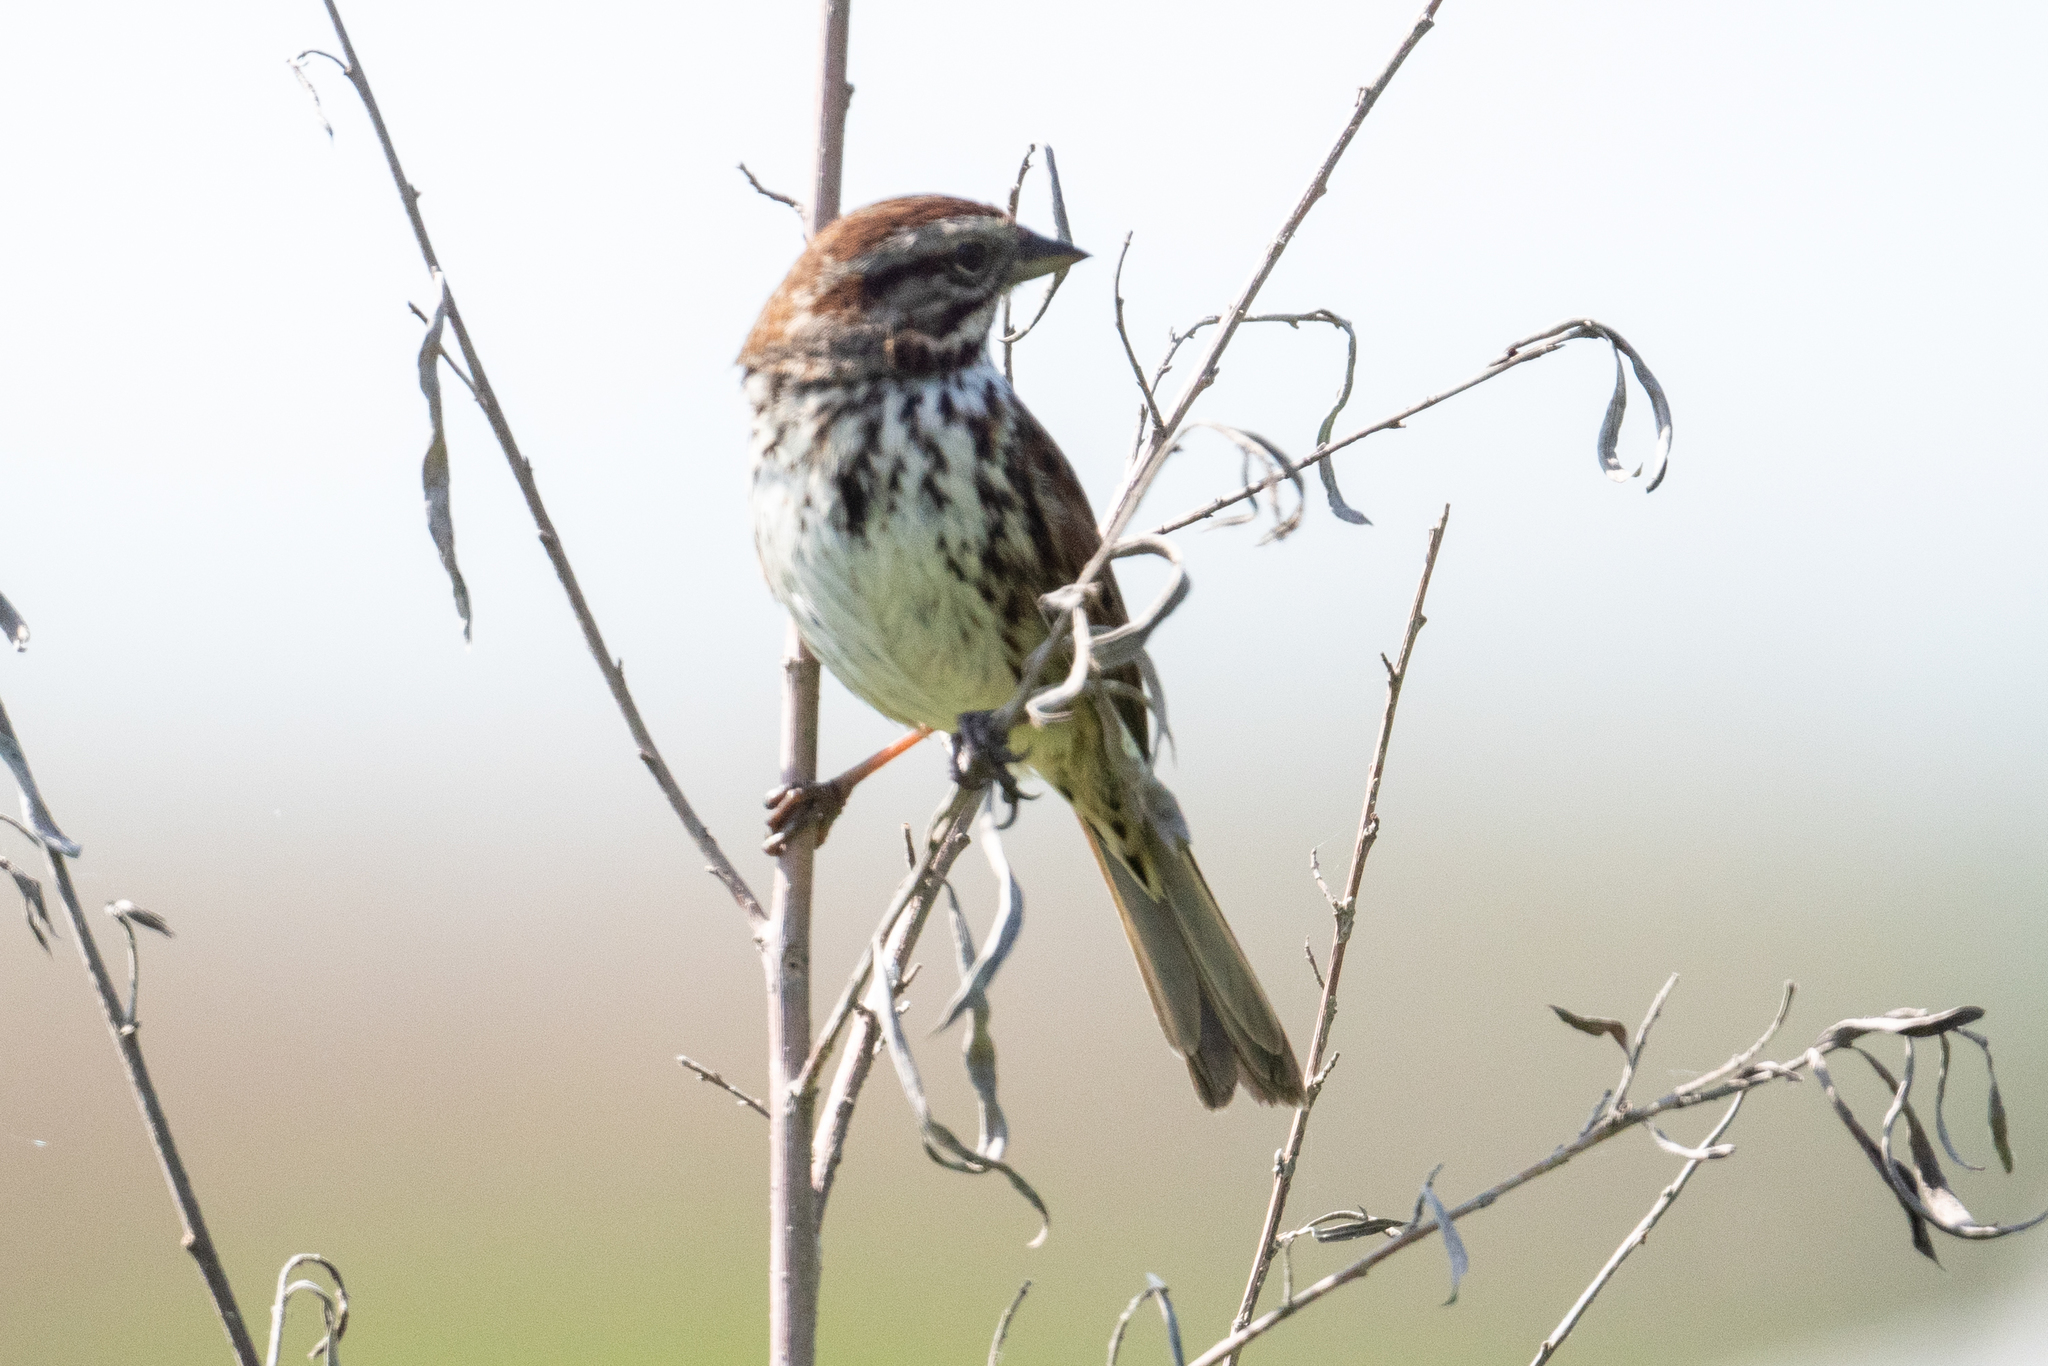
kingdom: Animalia
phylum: Chordata
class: Aves
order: Passeriformes
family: Passerellidae
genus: Melospiza
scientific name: Melospiza melodia
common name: Song sparrow
